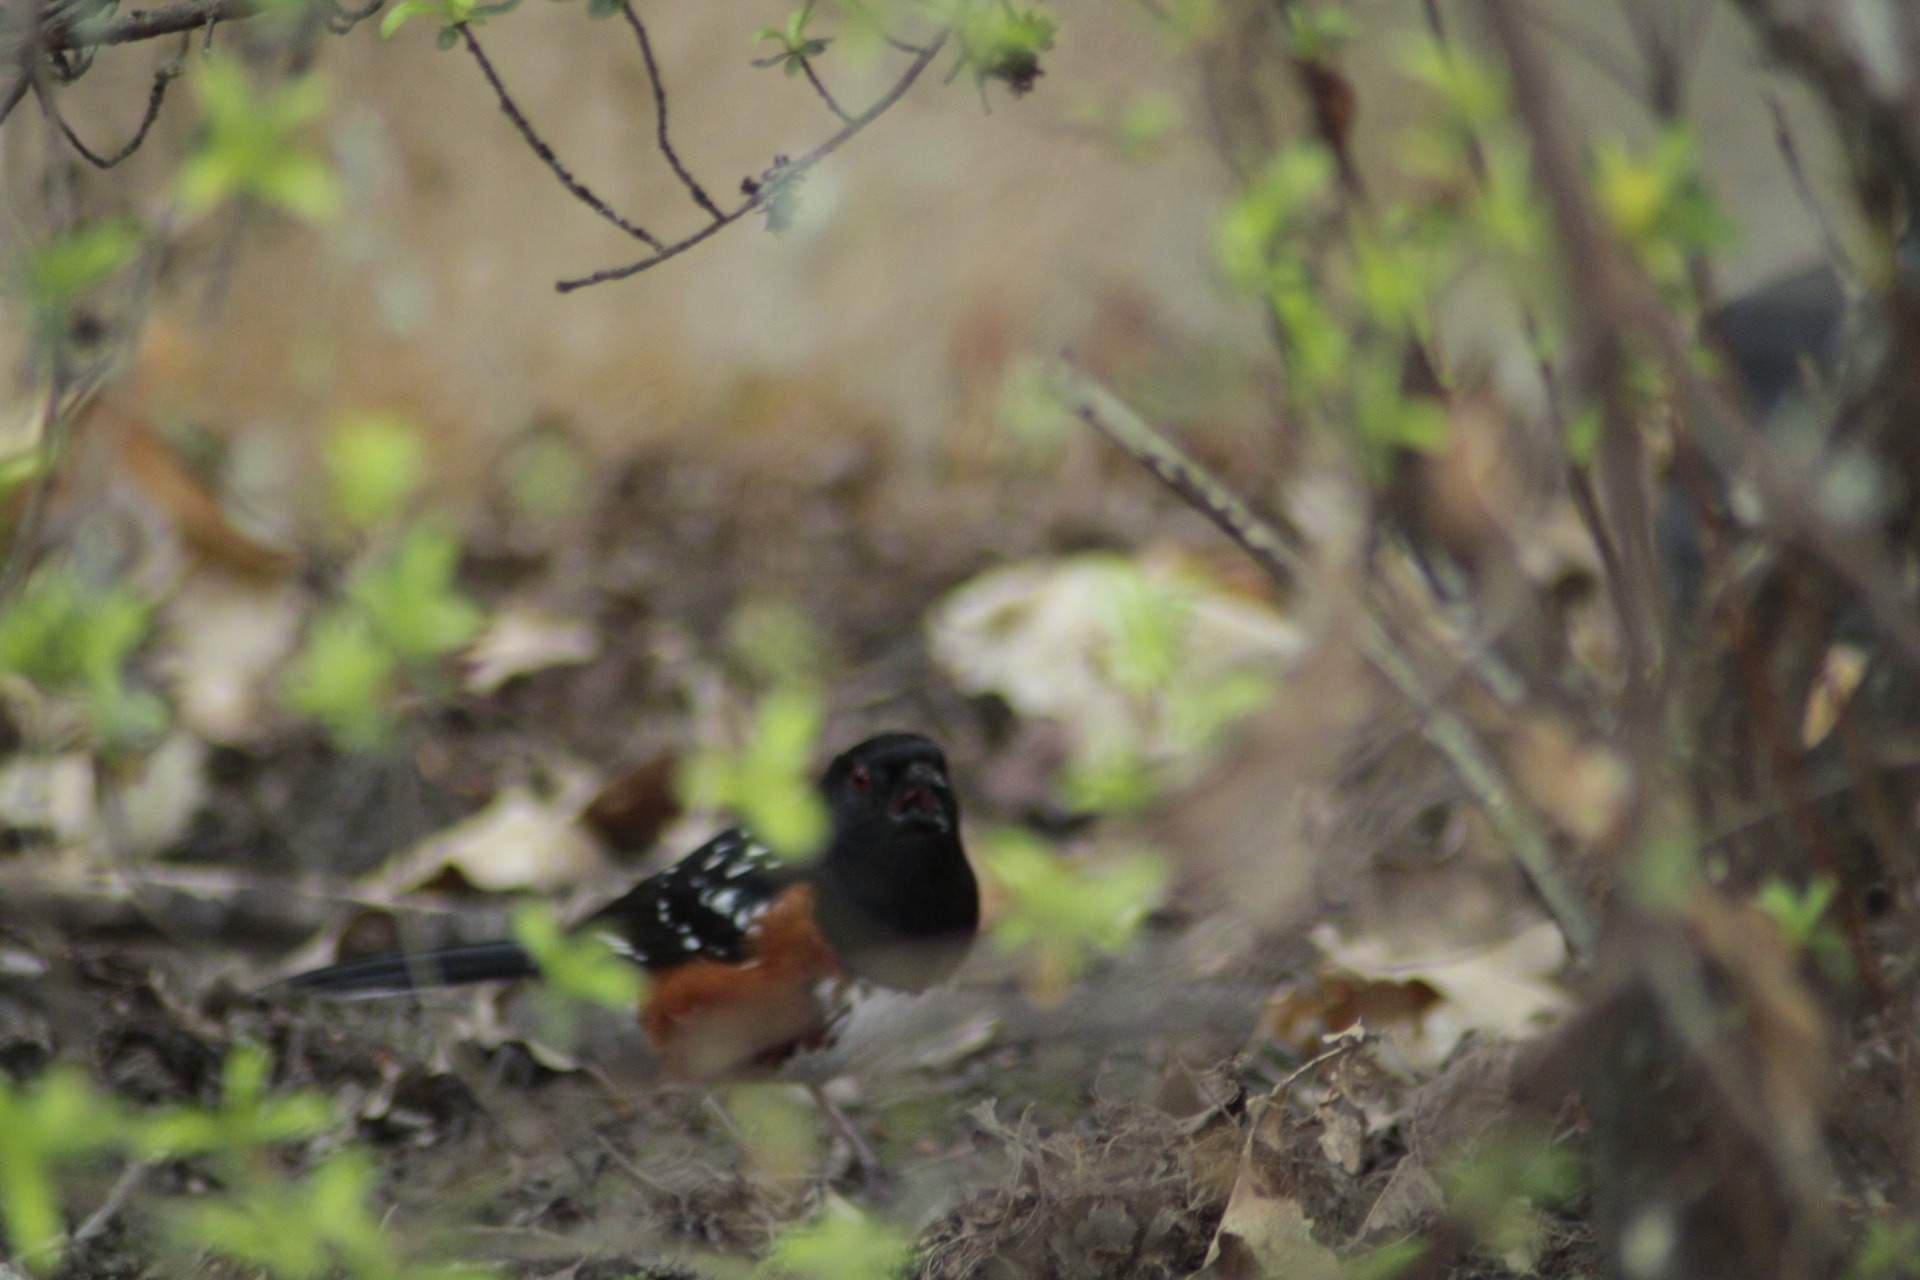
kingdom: Animalia
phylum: Chordata
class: Aves
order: Passeriformes
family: Passerellidae
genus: Pipilo
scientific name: Pipilo maculatus
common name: Spotted towhee
